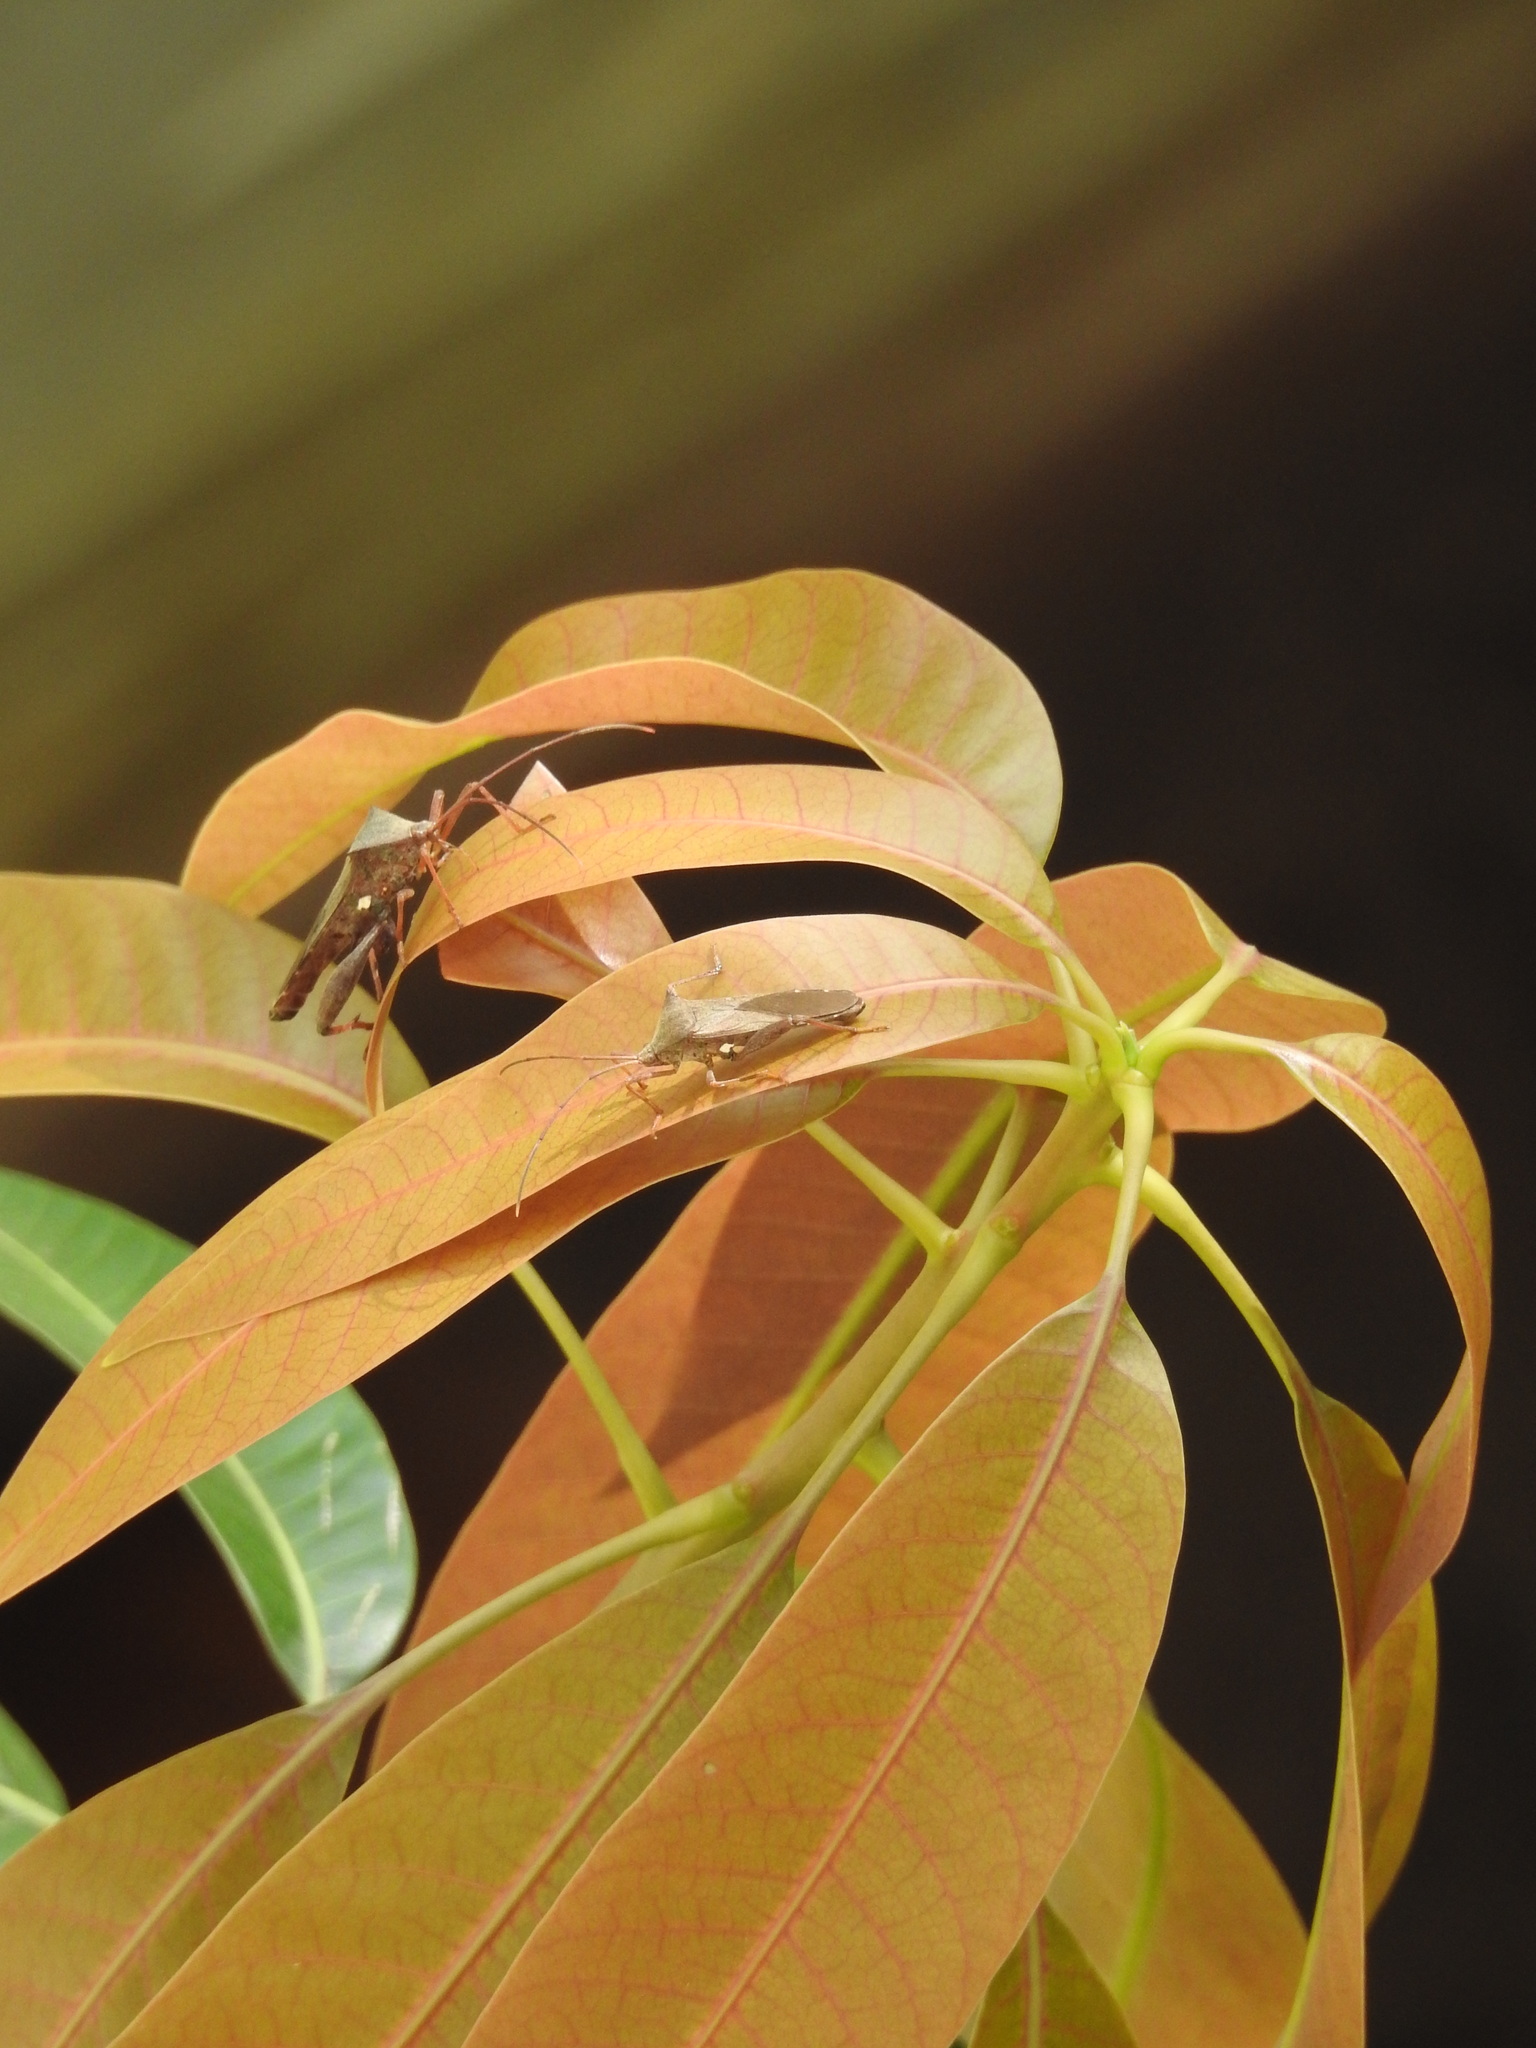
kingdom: Animalia
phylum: Arthropoda
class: Insecta
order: Hemiptera
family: Coreidae
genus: Mictis
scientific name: Mictis longicornis
